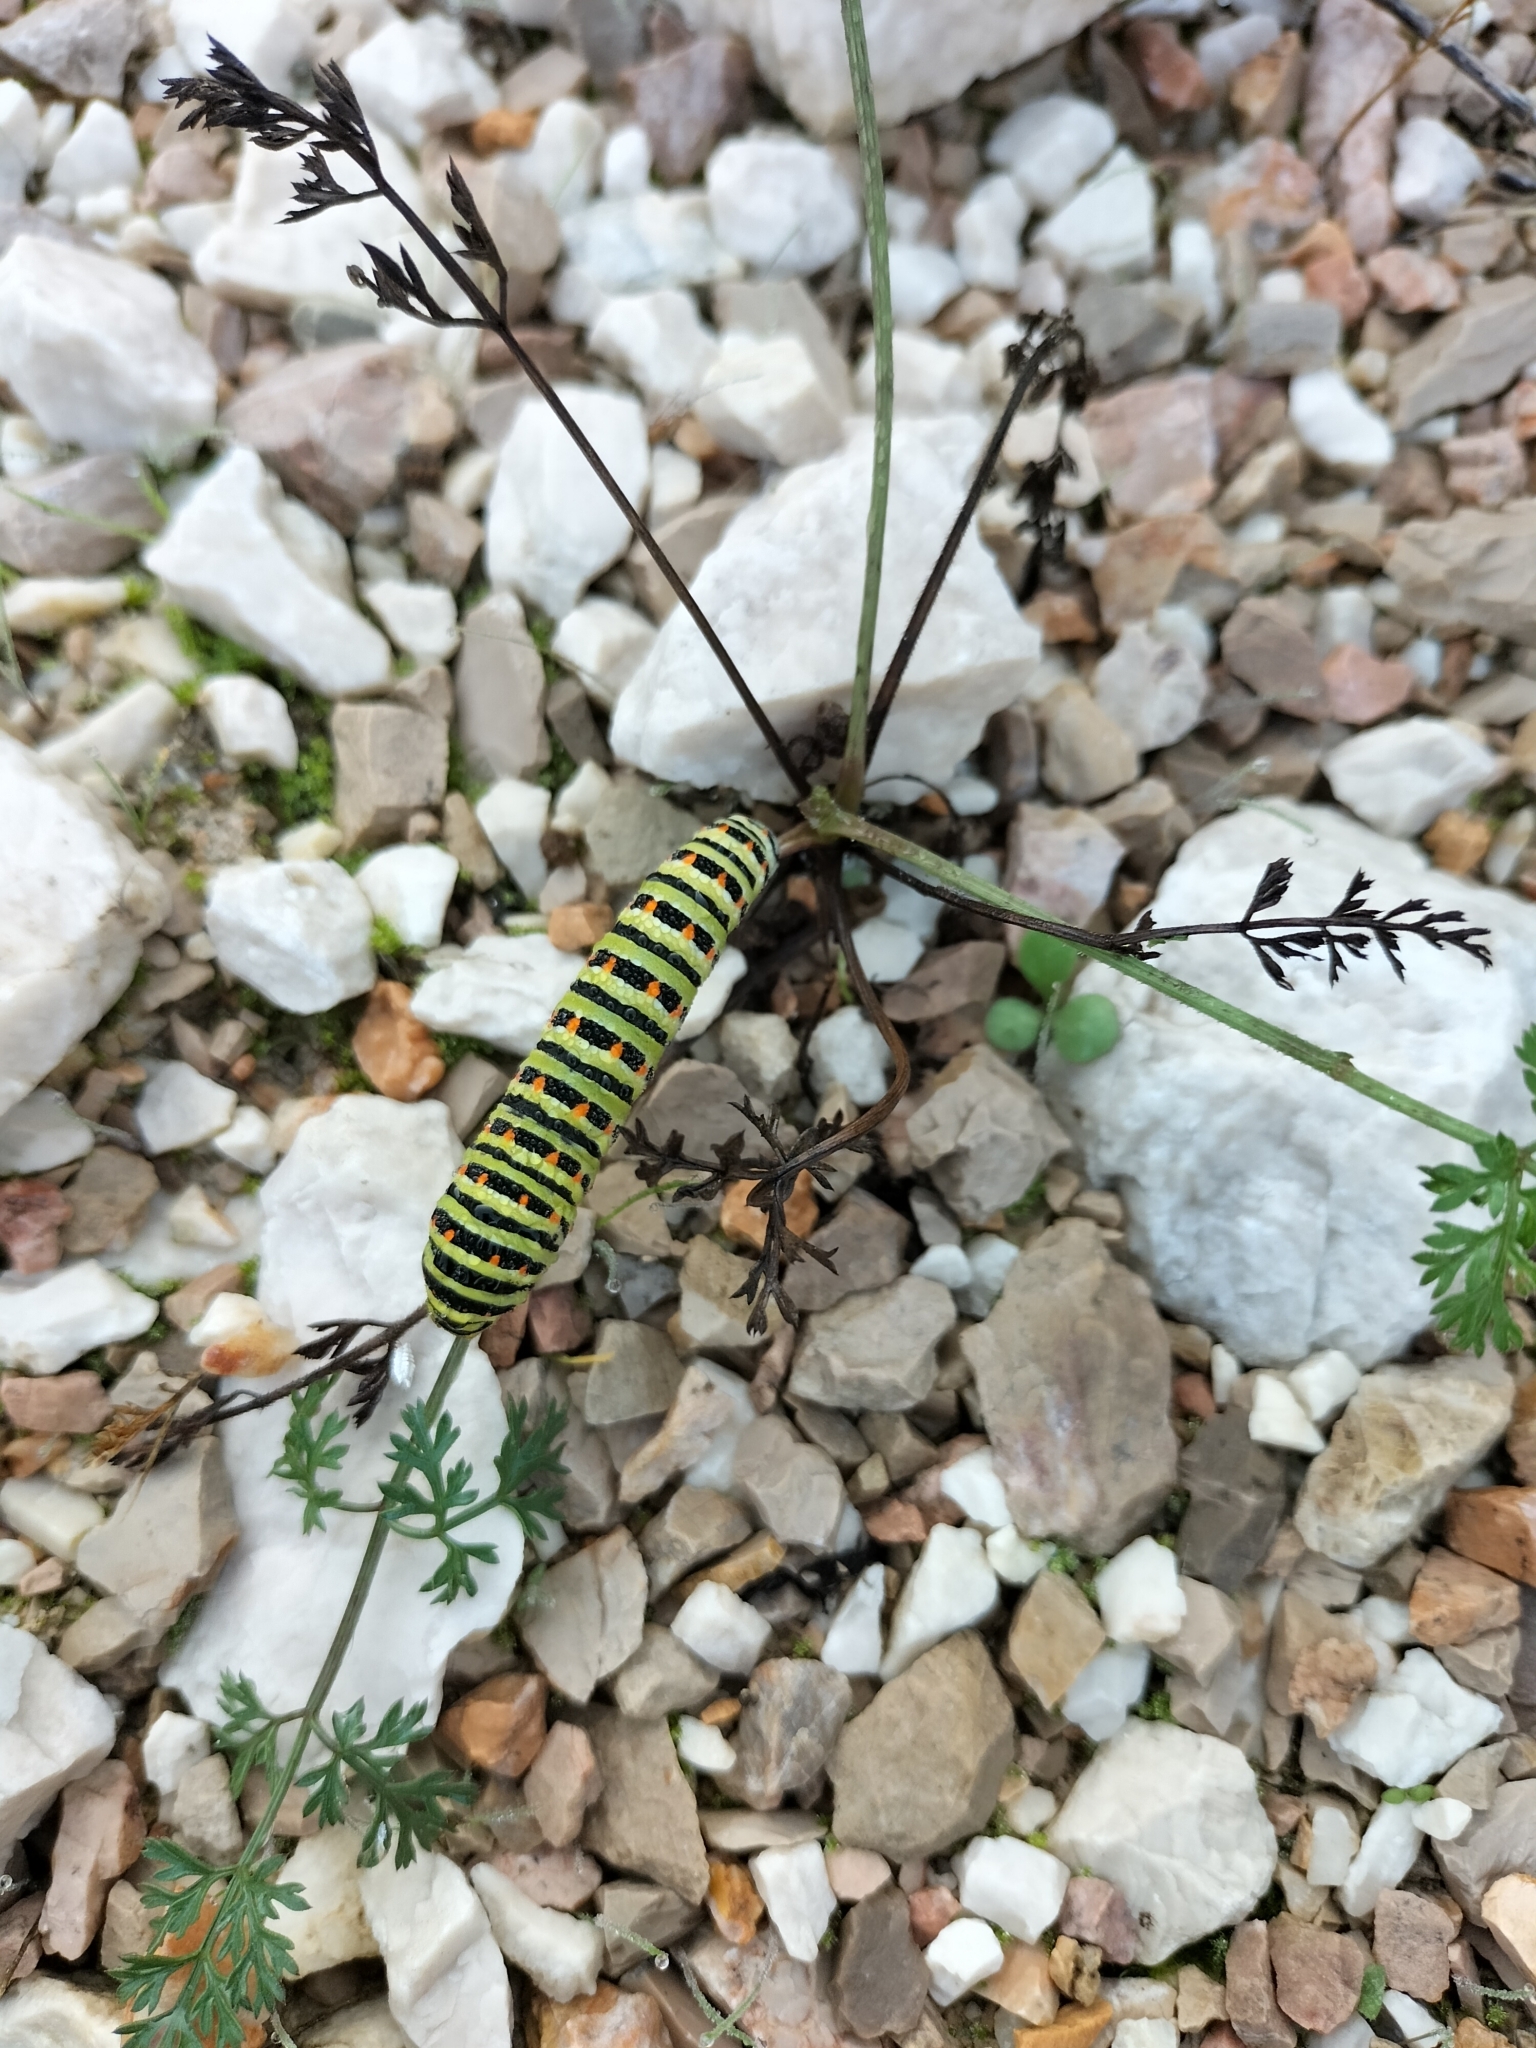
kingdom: Animalia
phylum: Arthropoda
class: Insecta
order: Lepidoptera
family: Papilionidae
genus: Papilio
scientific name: Papilio machaon
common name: Swallowtail
